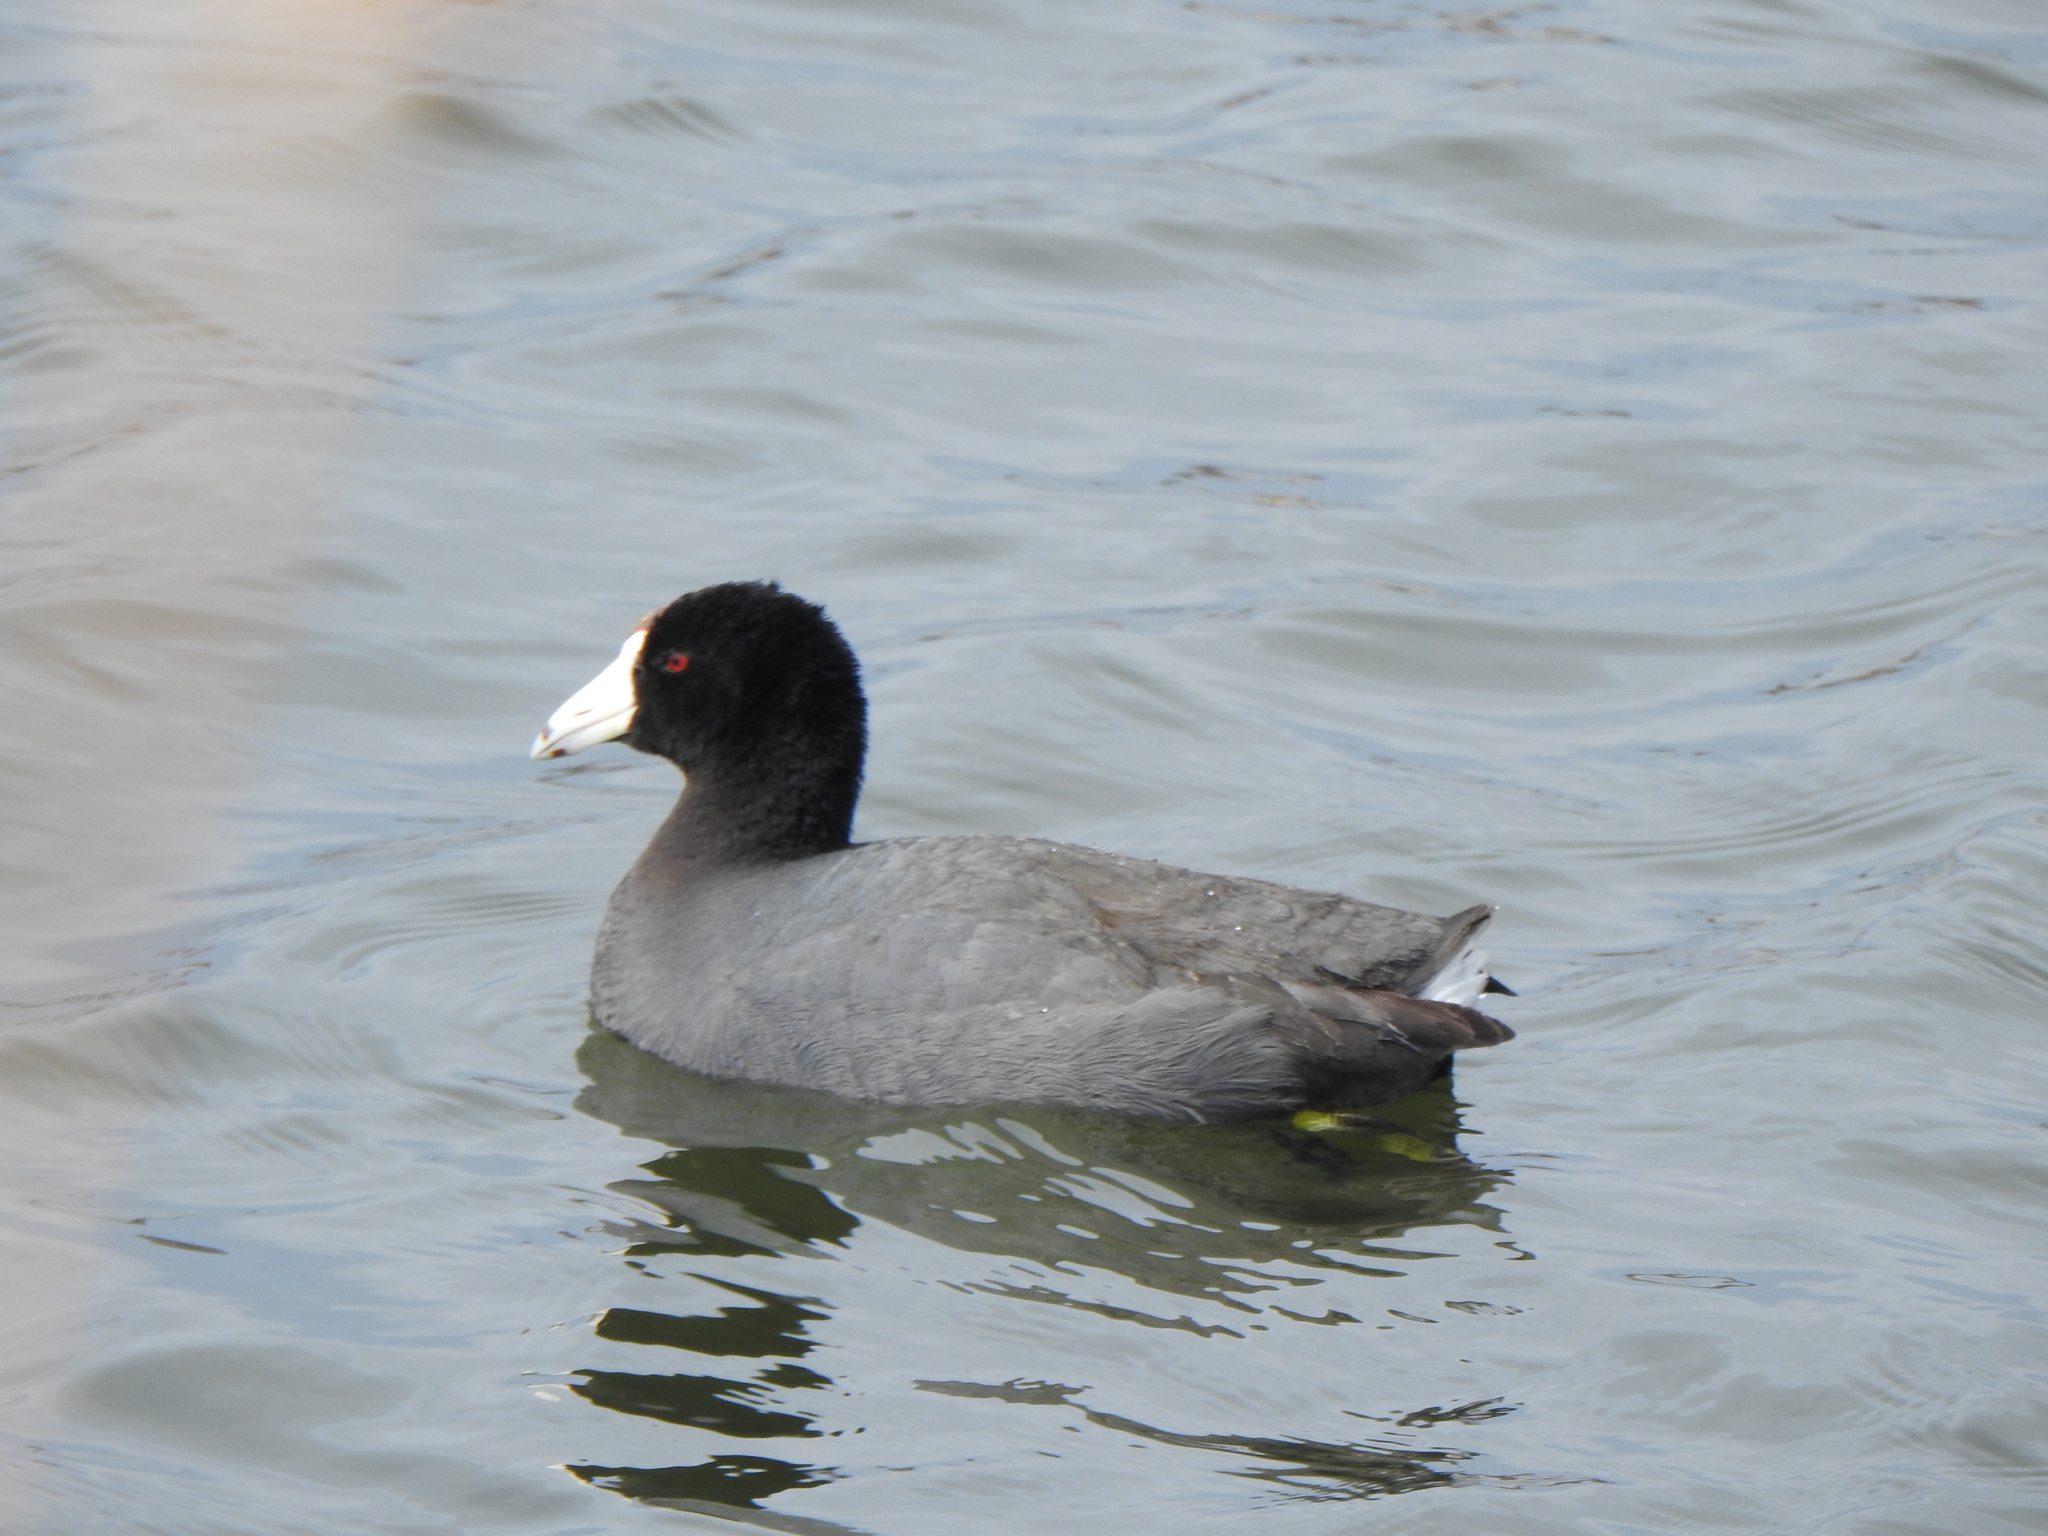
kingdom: Animalia
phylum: Chordata
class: Aves
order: Gruiformes
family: Rallidae
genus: Fulica
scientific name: Fulica americana
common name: American coot
